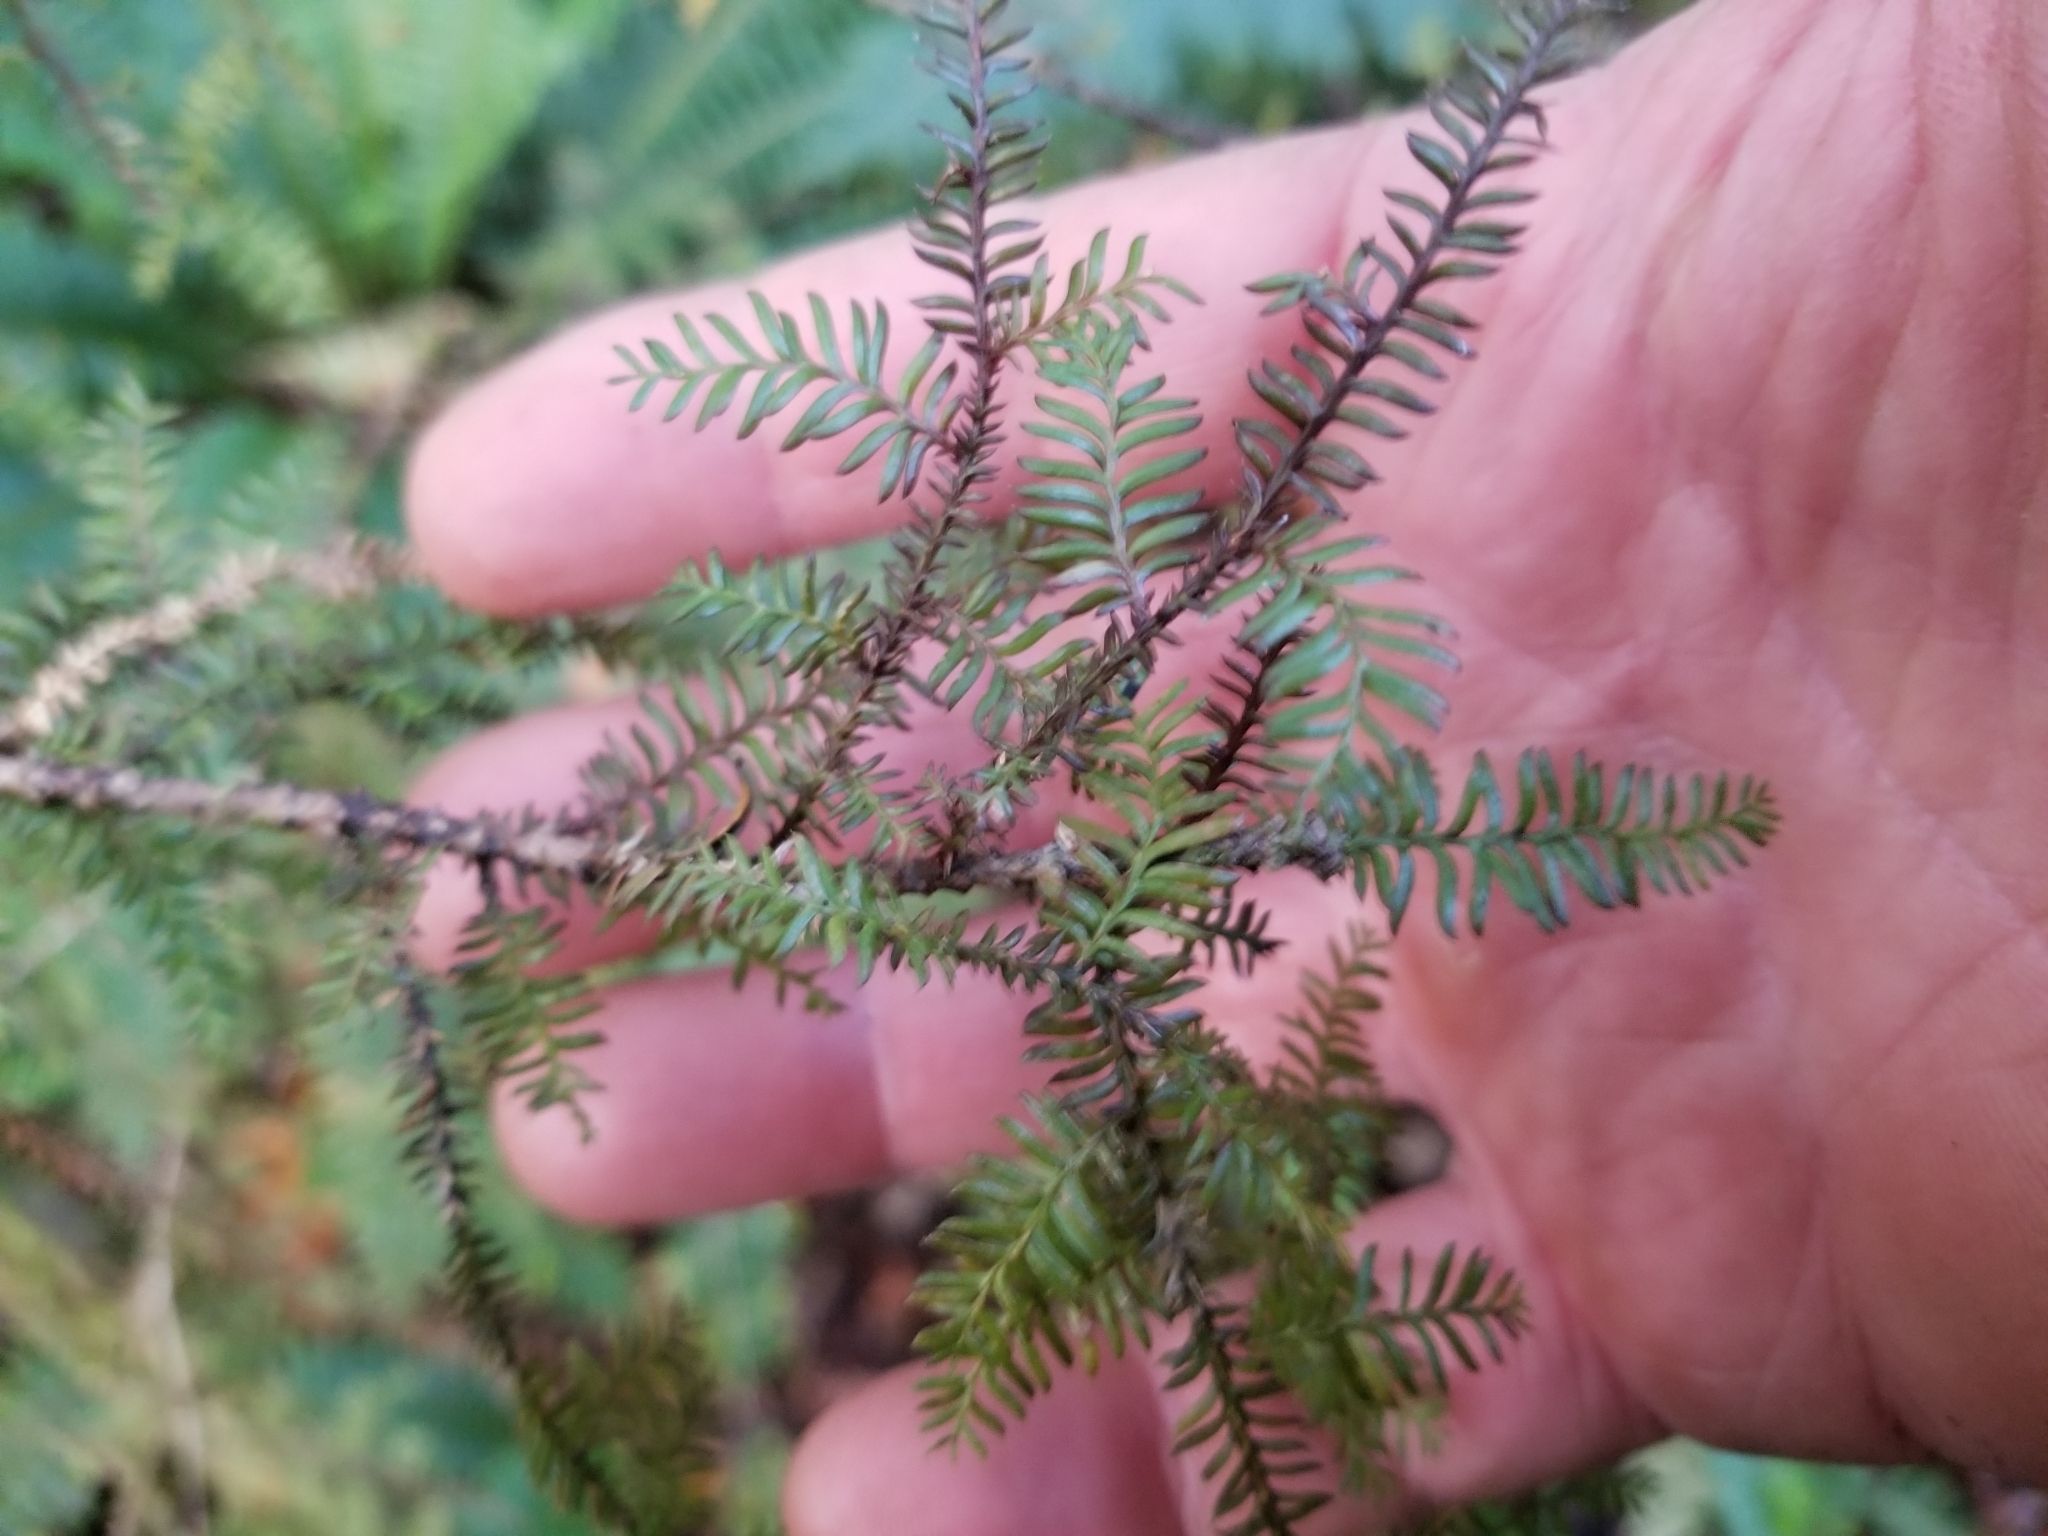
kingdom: Plantae
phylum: Tracheophyta
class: Pinopsida
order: Pinales
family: Podocarpaceae
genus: Dacrycarpus
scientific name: Dacrycarpus dacrydioides
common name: White pine
